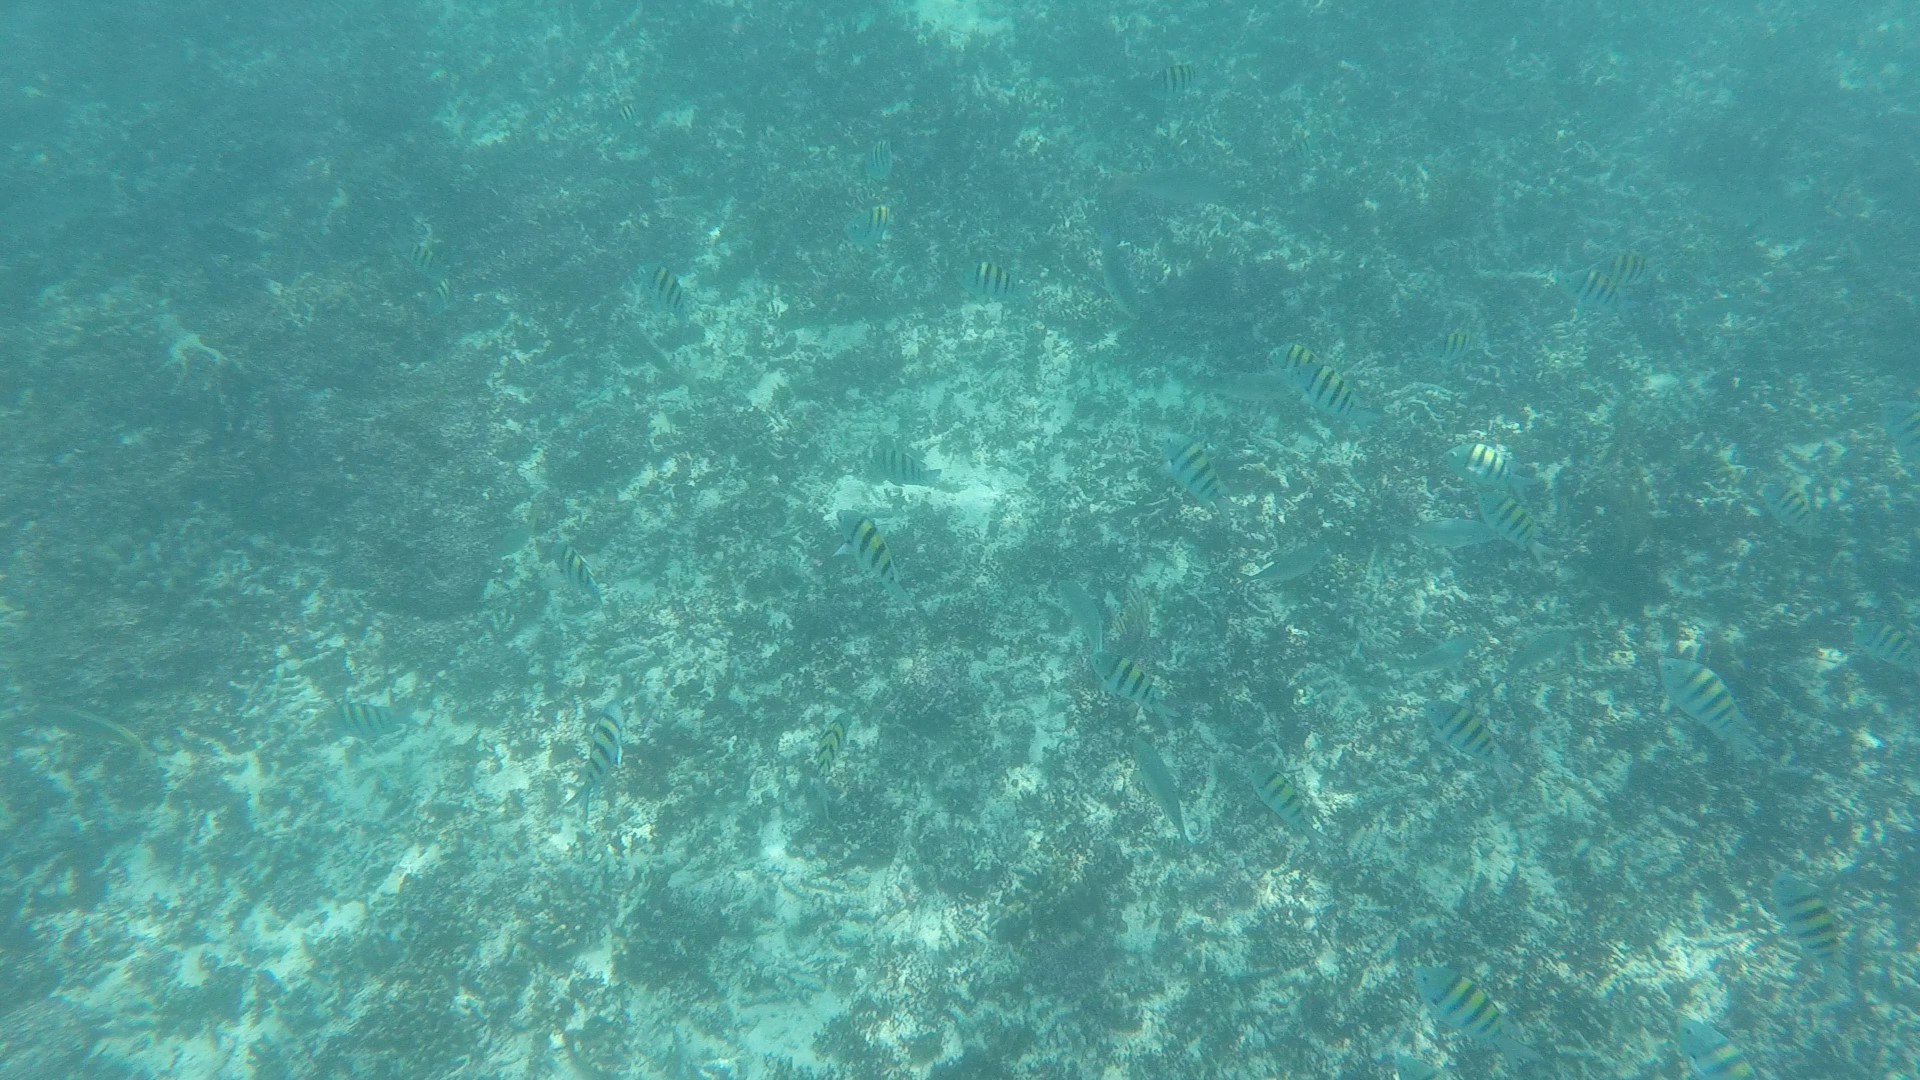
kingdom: Animalia
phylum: Chordata
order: Perciformes
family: Pomacentridae
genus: Abudefduf
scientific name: Abudefduf saxatilis
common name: Sergeant major
